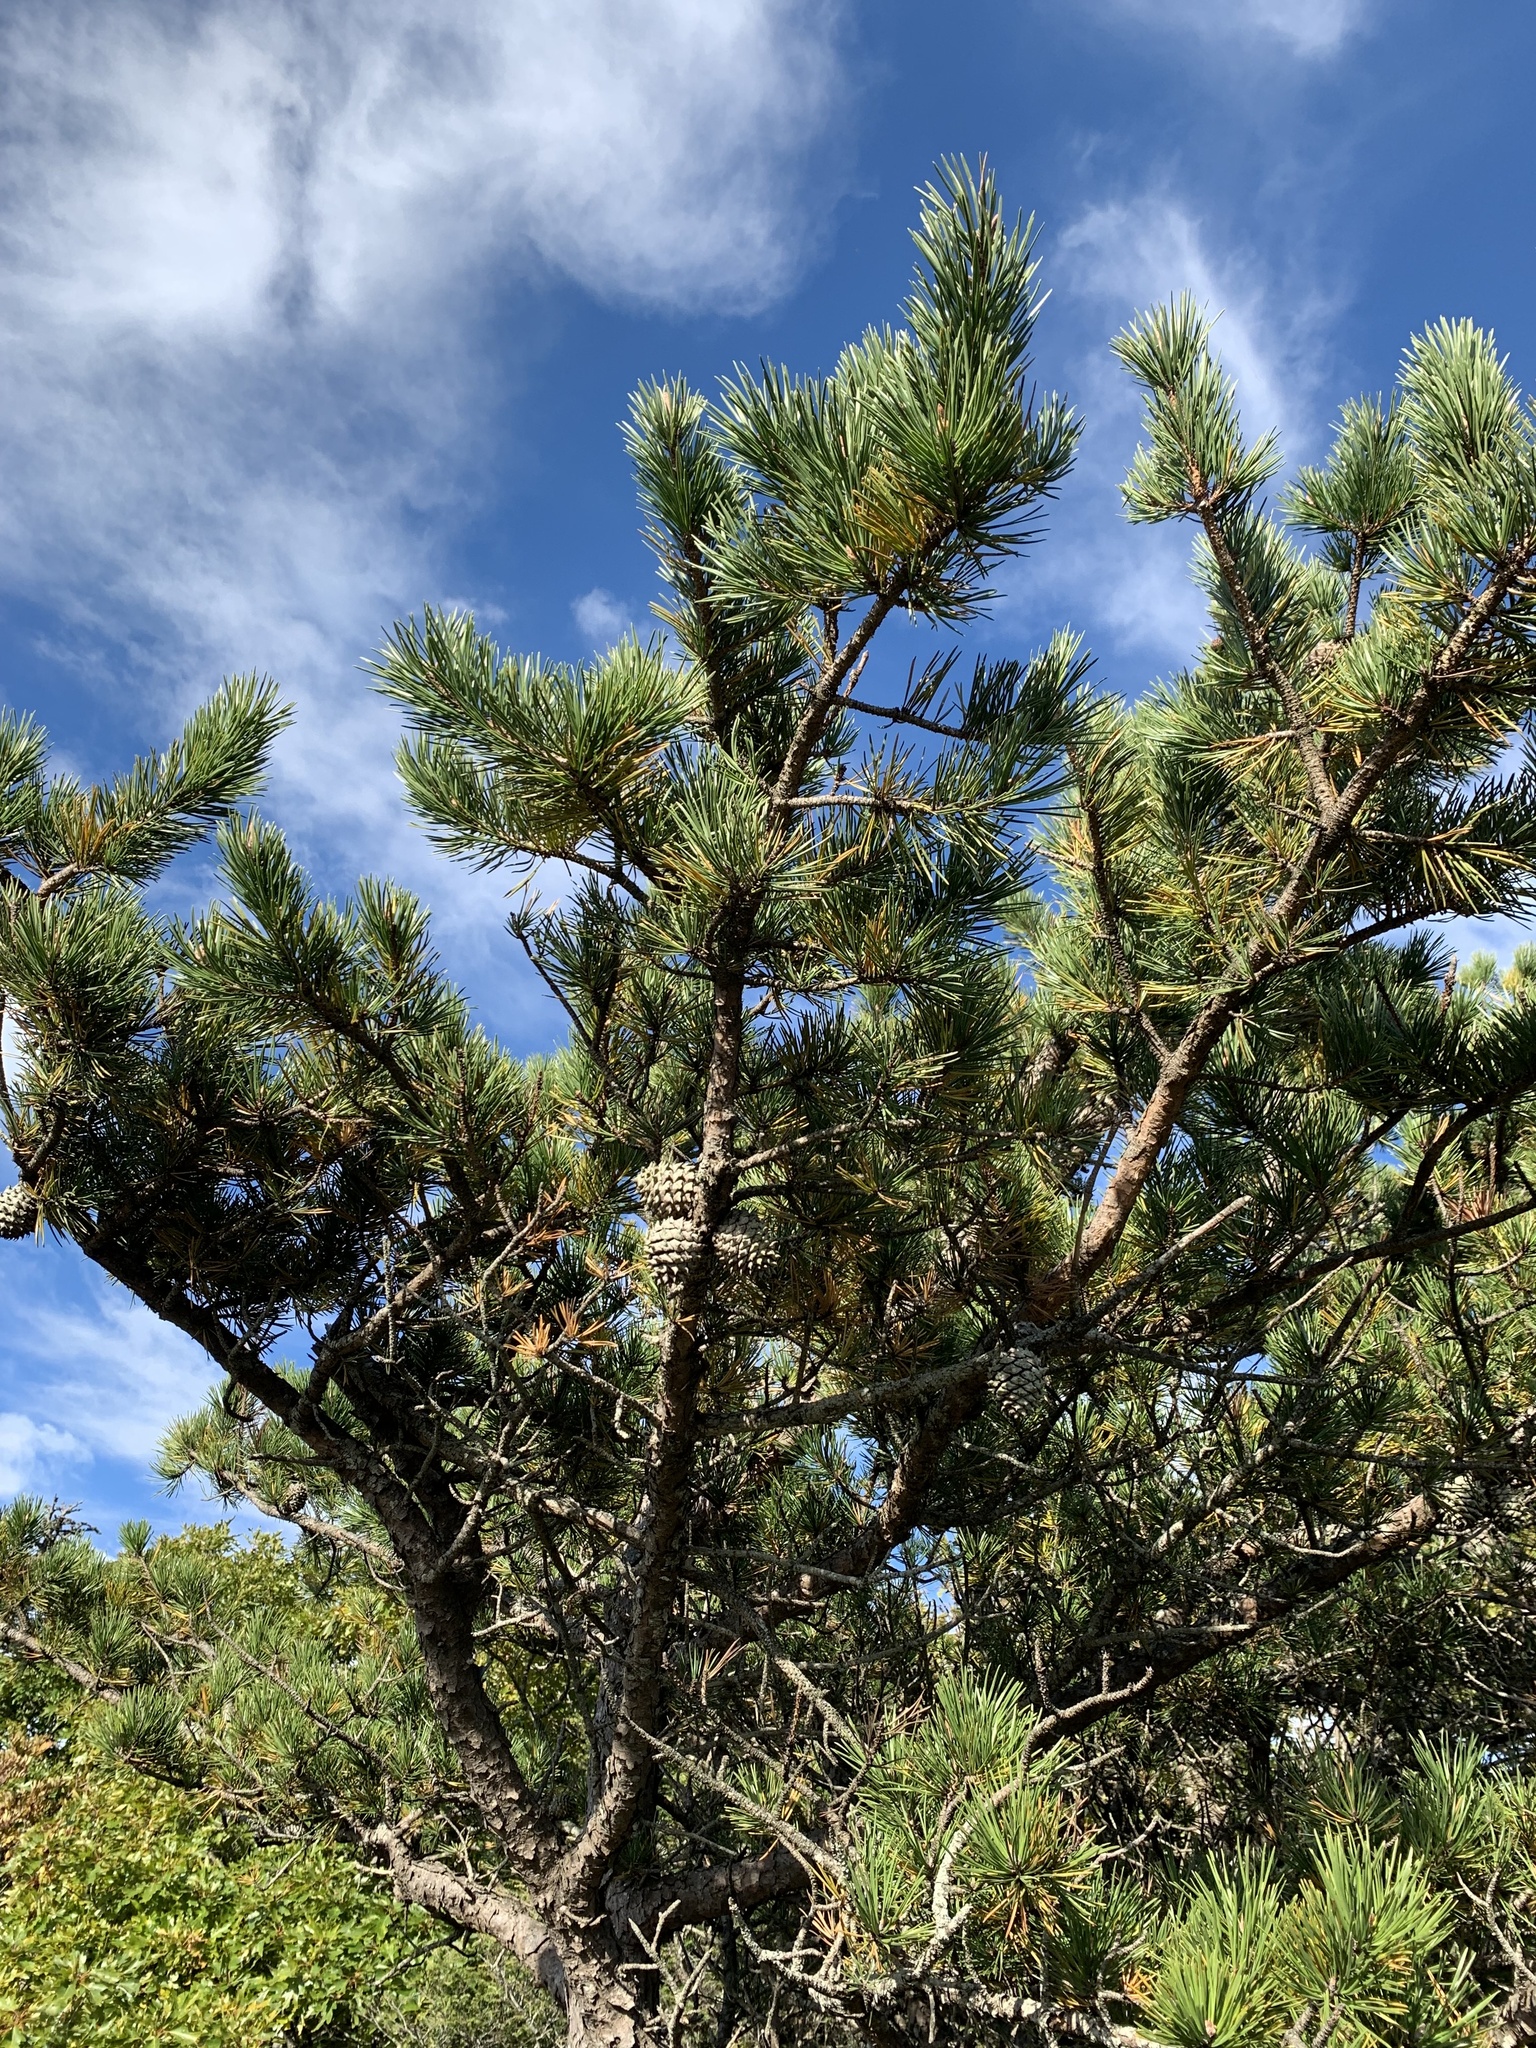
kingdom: Plantae
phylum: Tracheophyta
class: Pinopsida
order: Pinales
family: Pinaceae
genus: Pinus
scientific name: Pinus pungens
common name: Hickory pine
